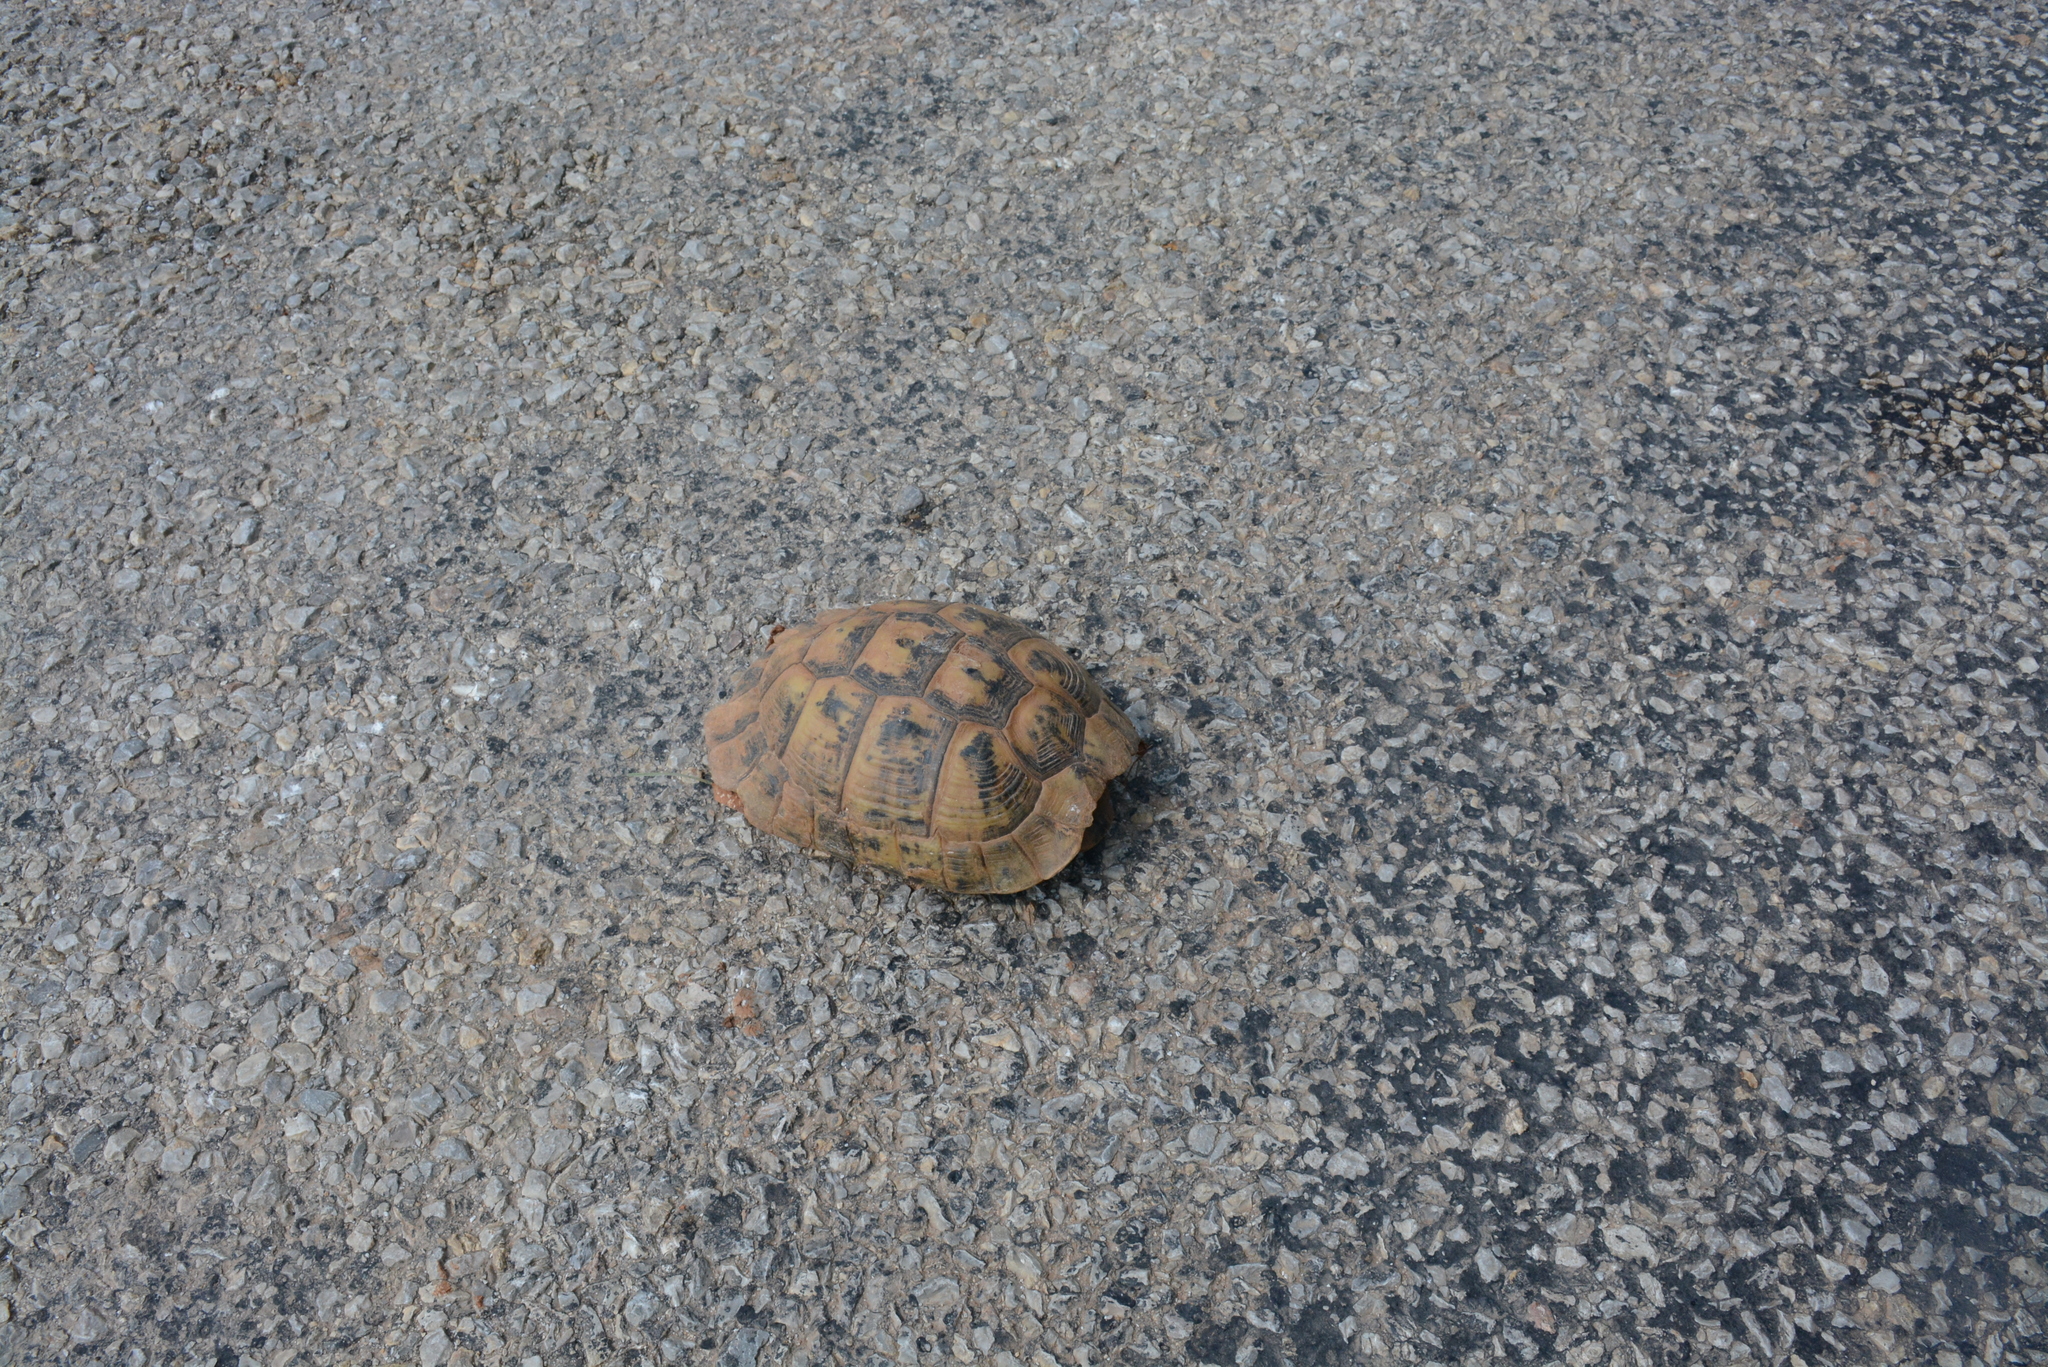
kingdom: Animalia
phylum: Chordata
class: Testudines
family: Testudinidae
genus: Testudo
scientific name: Testudo graeca
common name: Common tortoise
